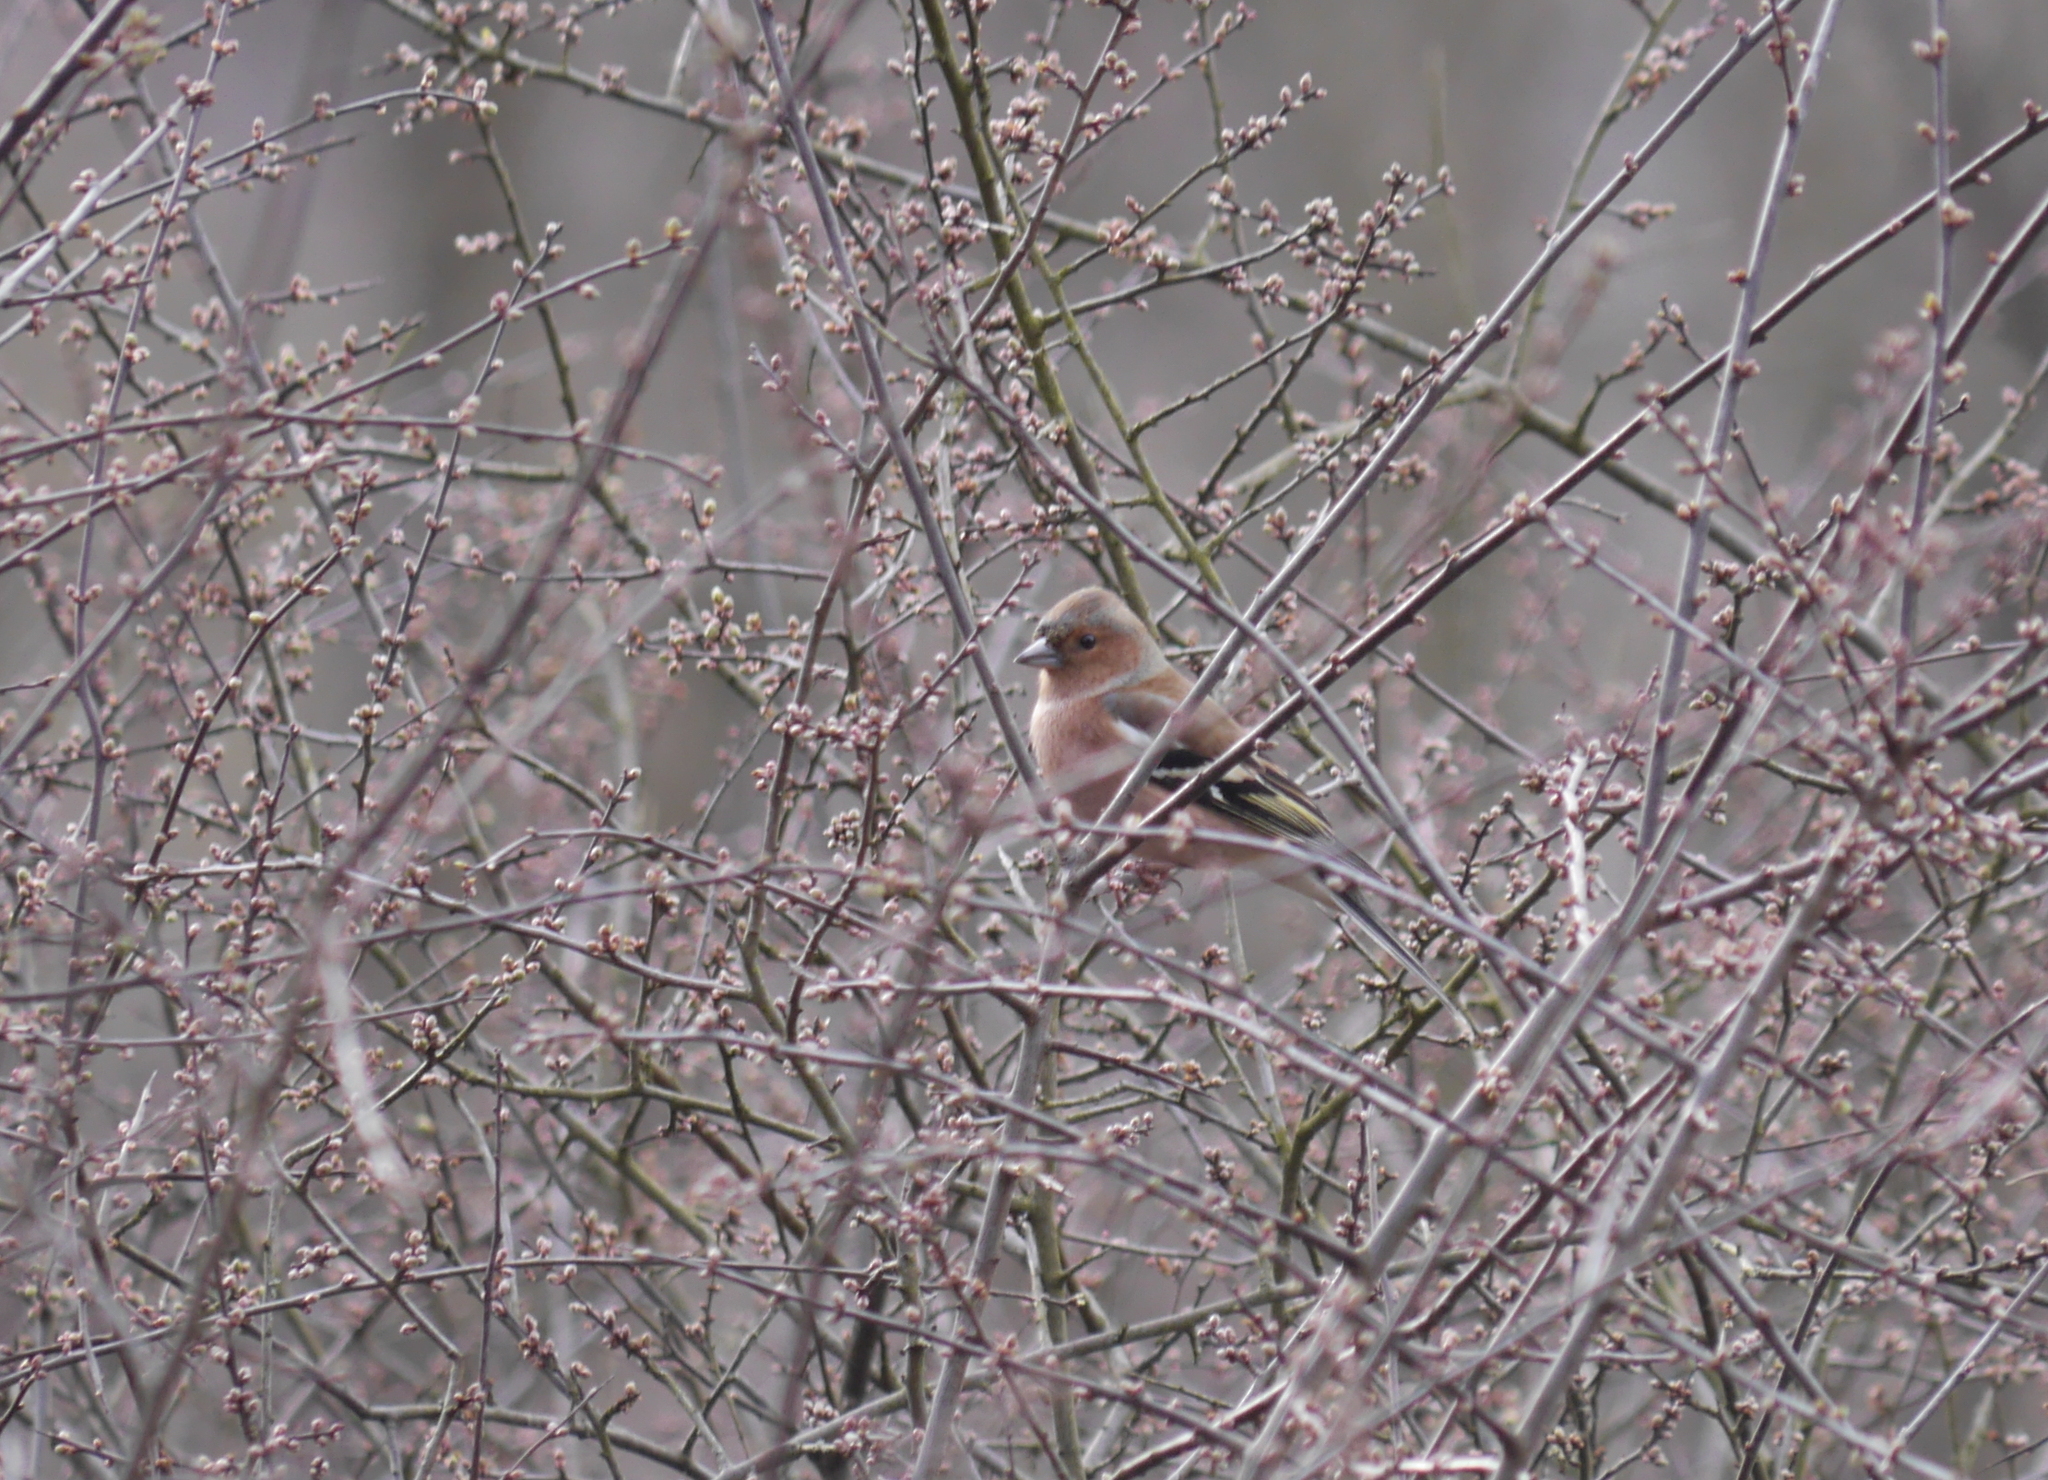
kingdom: Animalia
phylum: Chordata
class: Aves
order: Passeriformes
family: Fringillidae
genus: Fringilla
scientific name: Fringilla coelebs
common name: Common chaffinch
